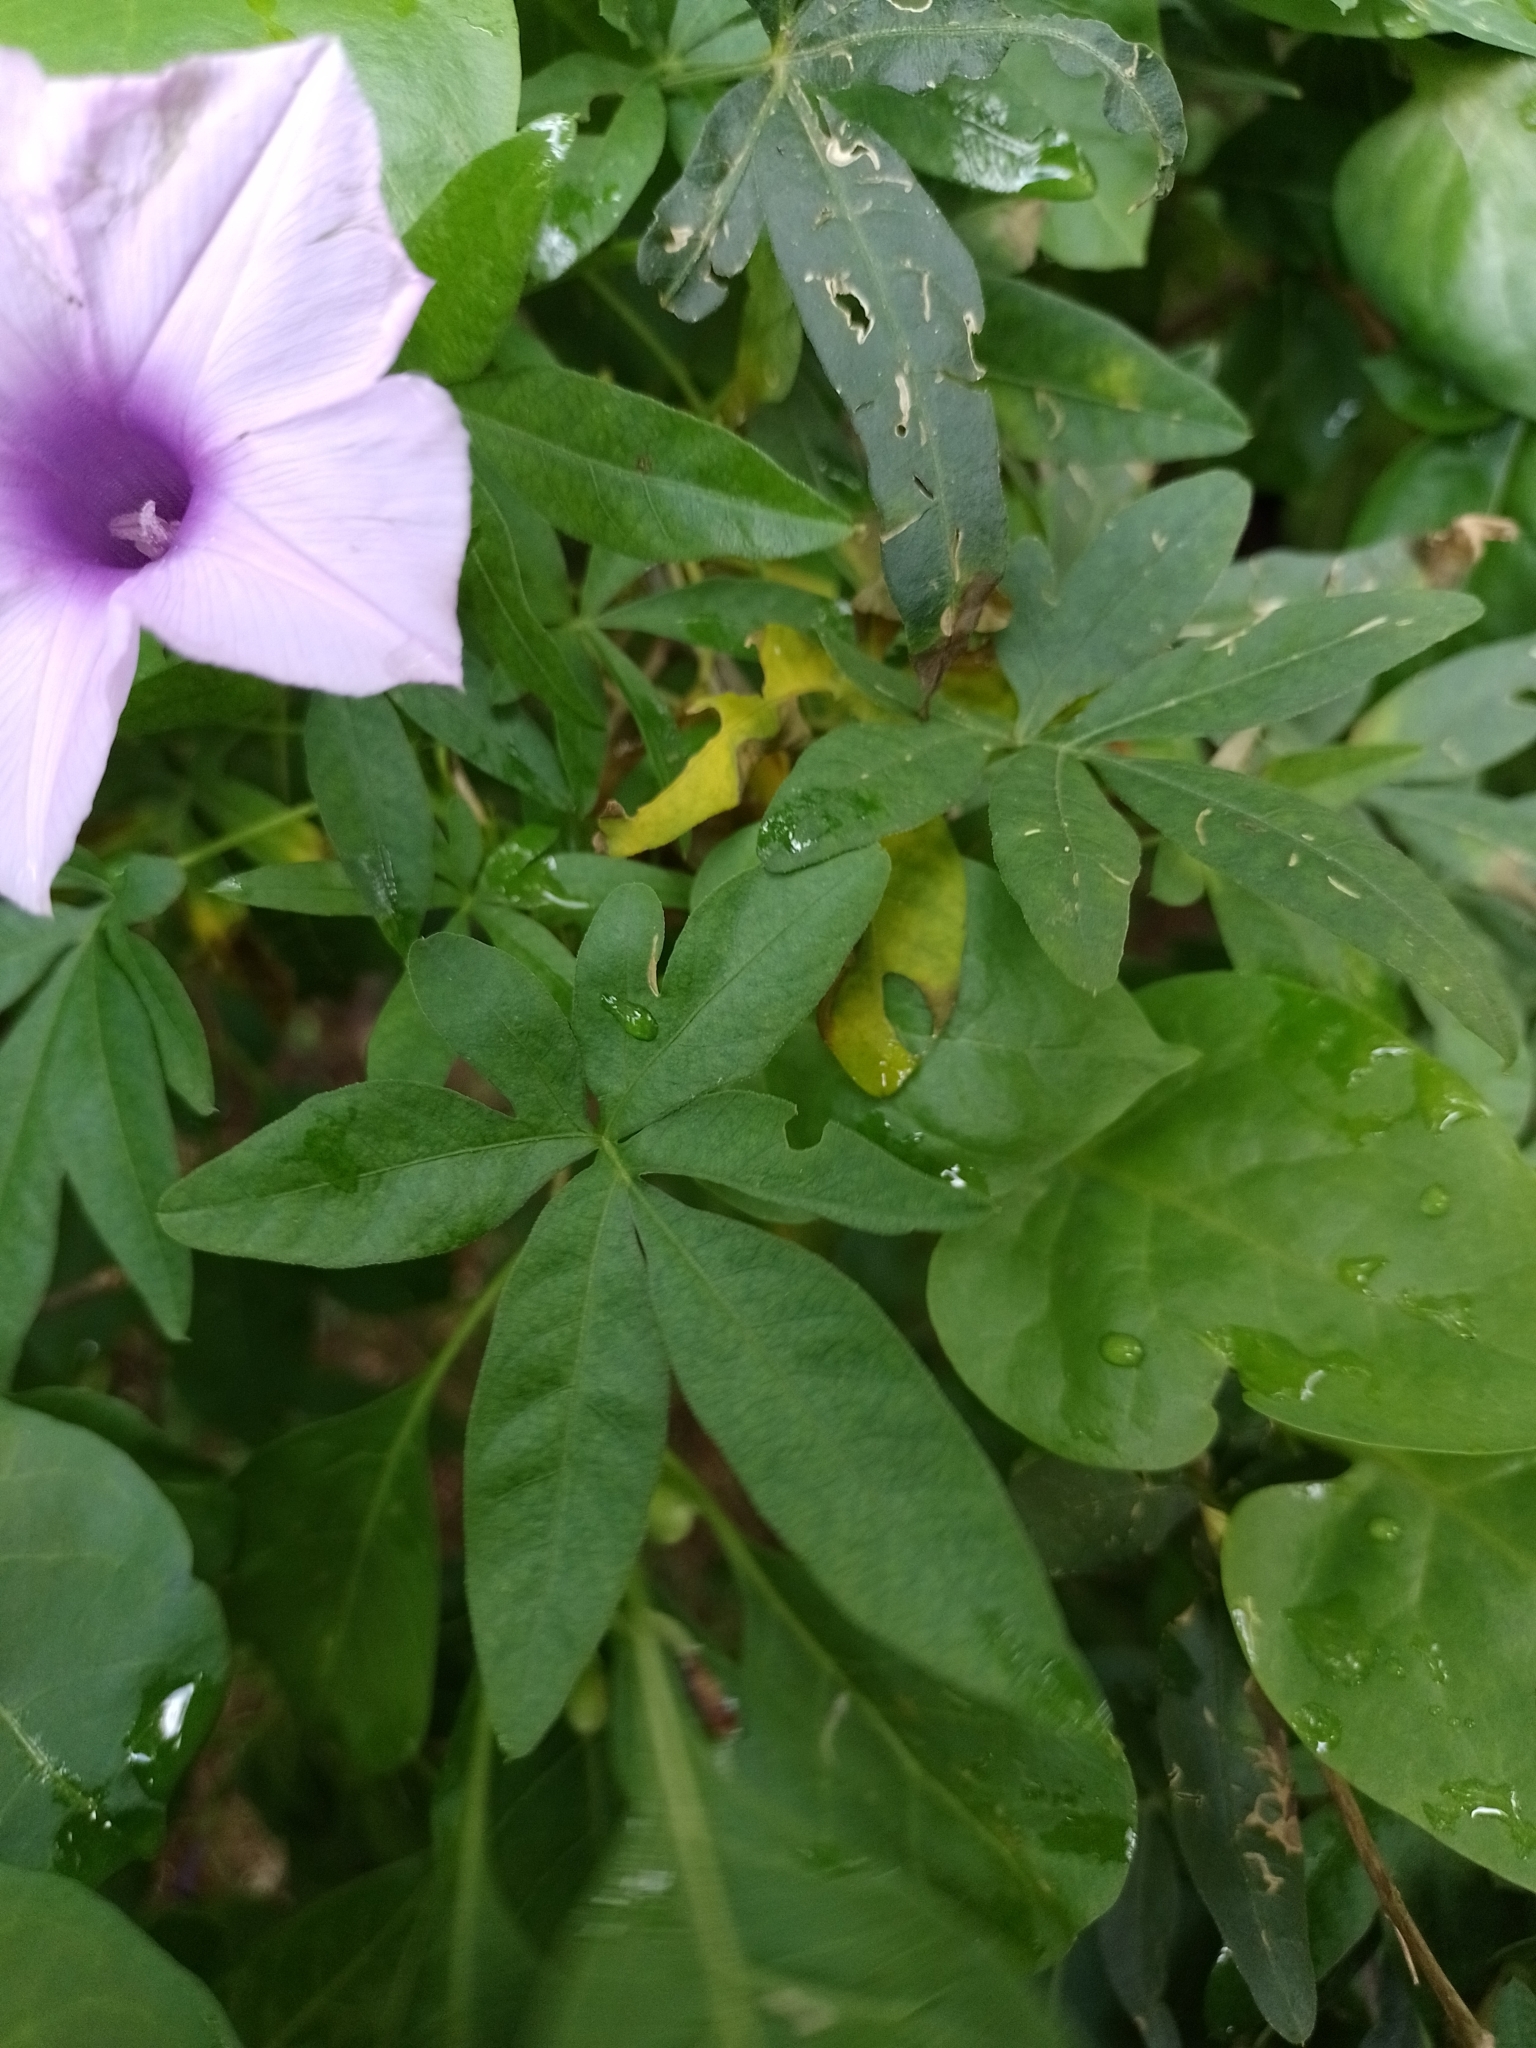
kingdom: Plantae
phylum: Tracheophyta
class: Magnoliopsida
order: Solanales
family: Convolvulaceae
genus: Ipomoea
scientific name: Ipomoea cairica
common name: Mile a minute vine
